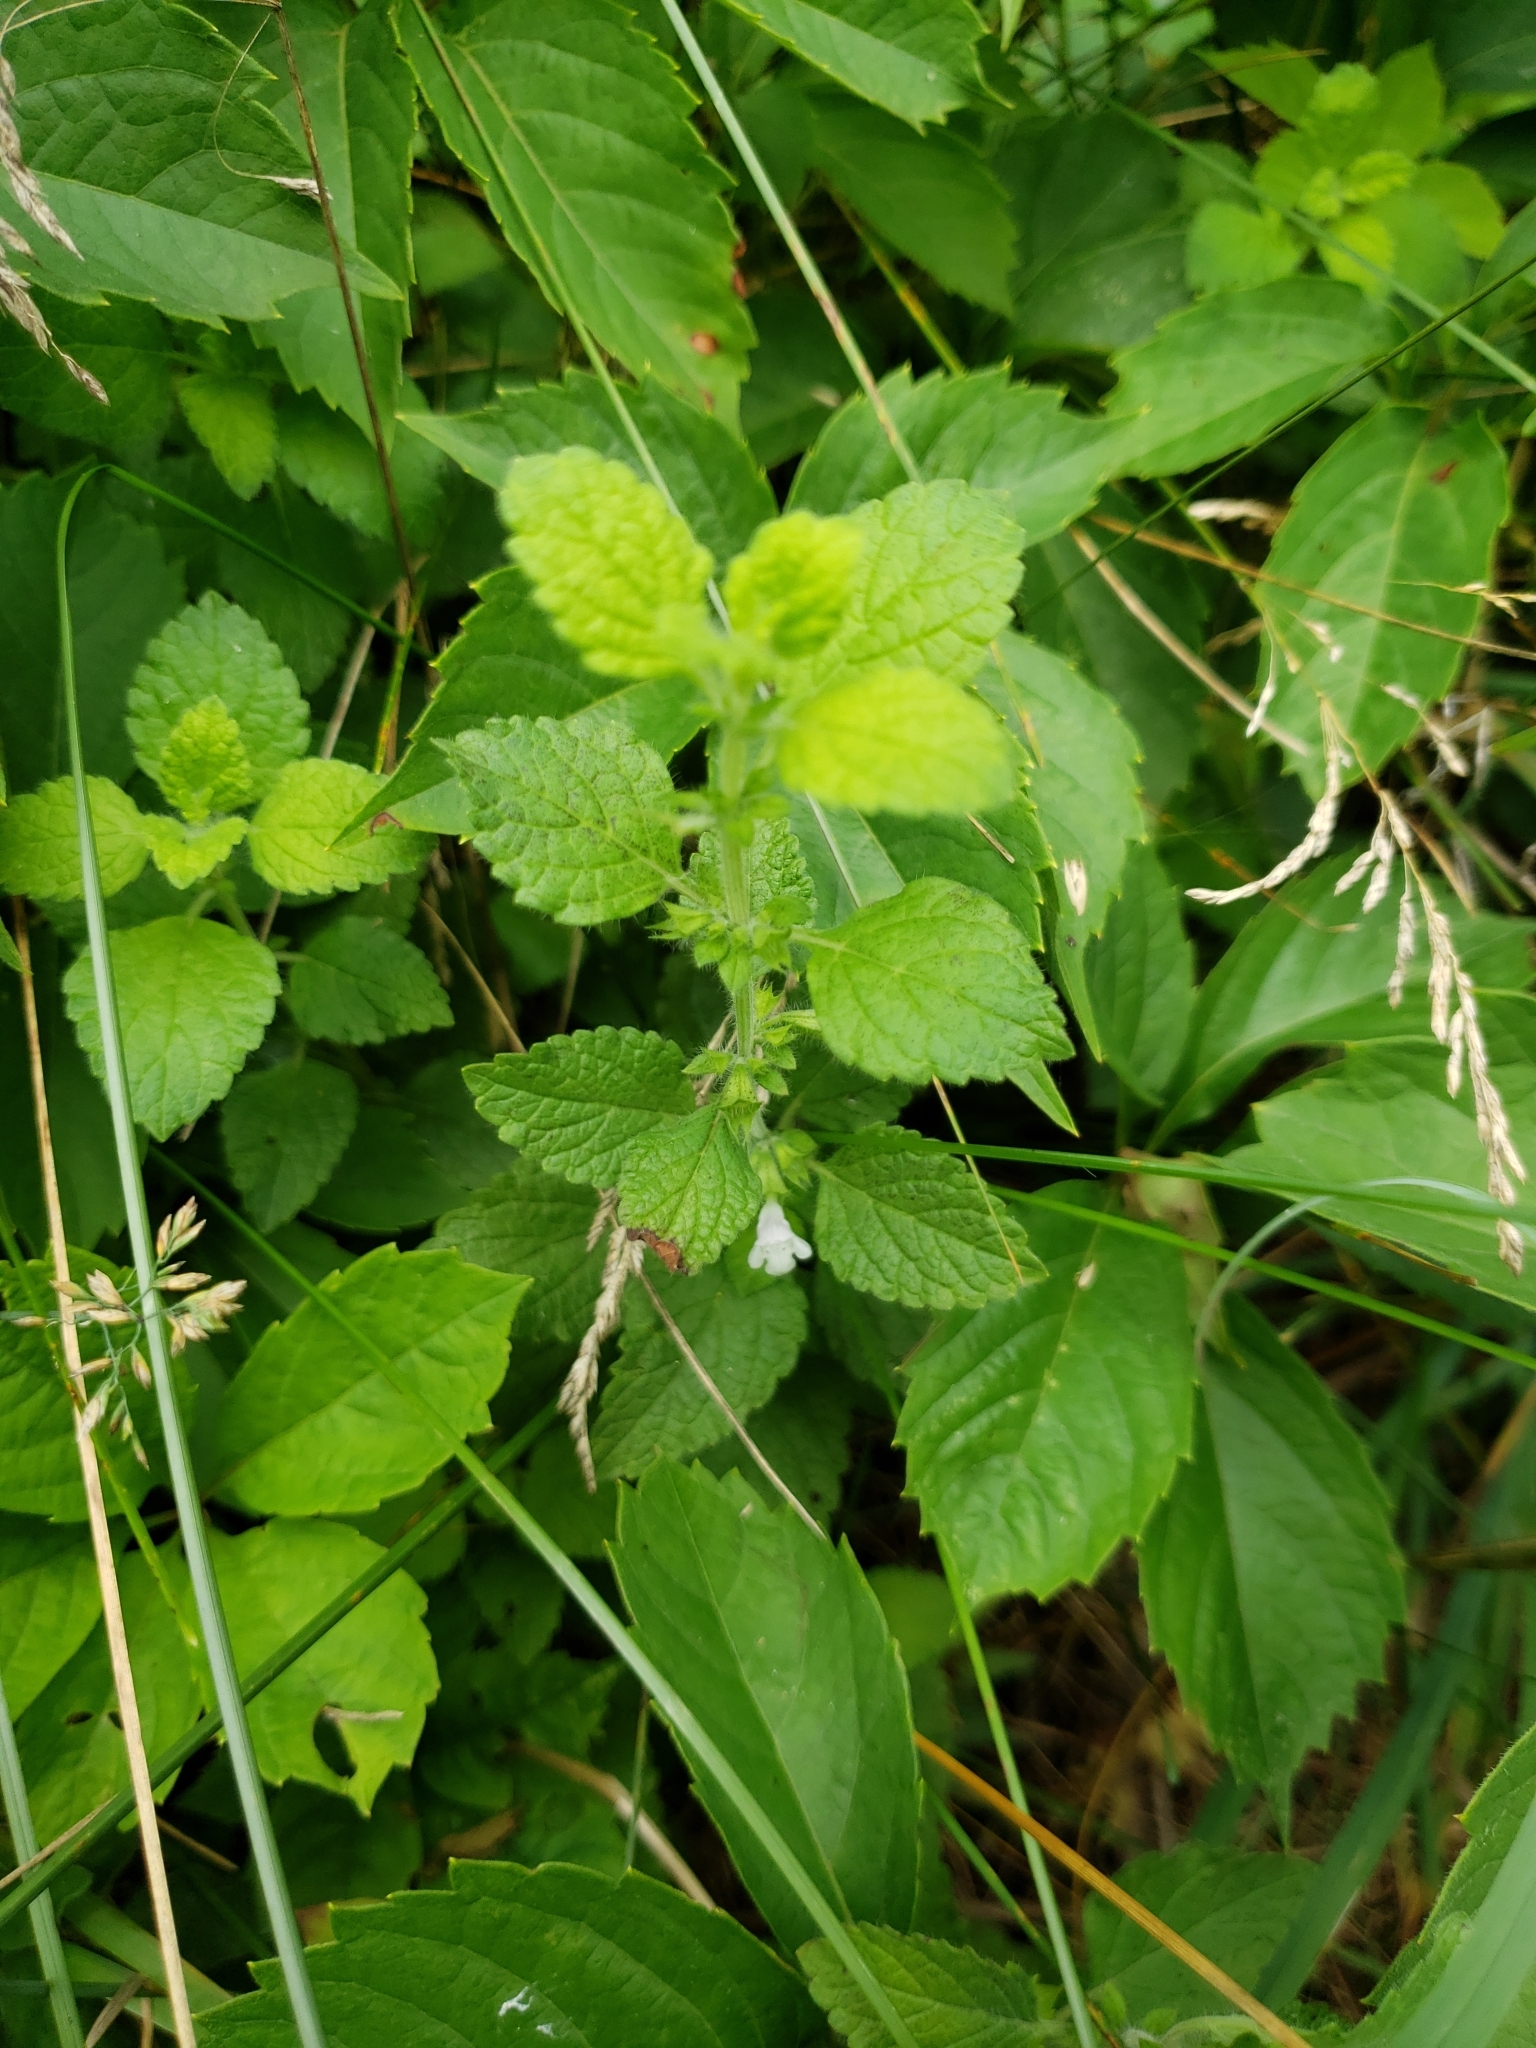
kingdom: Plantae
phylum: Tracheophyta
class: Magnoliopsida
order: Lamiales
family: Lamiaceae
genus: Melissa
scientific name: Melissa officinalis
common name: Balm
